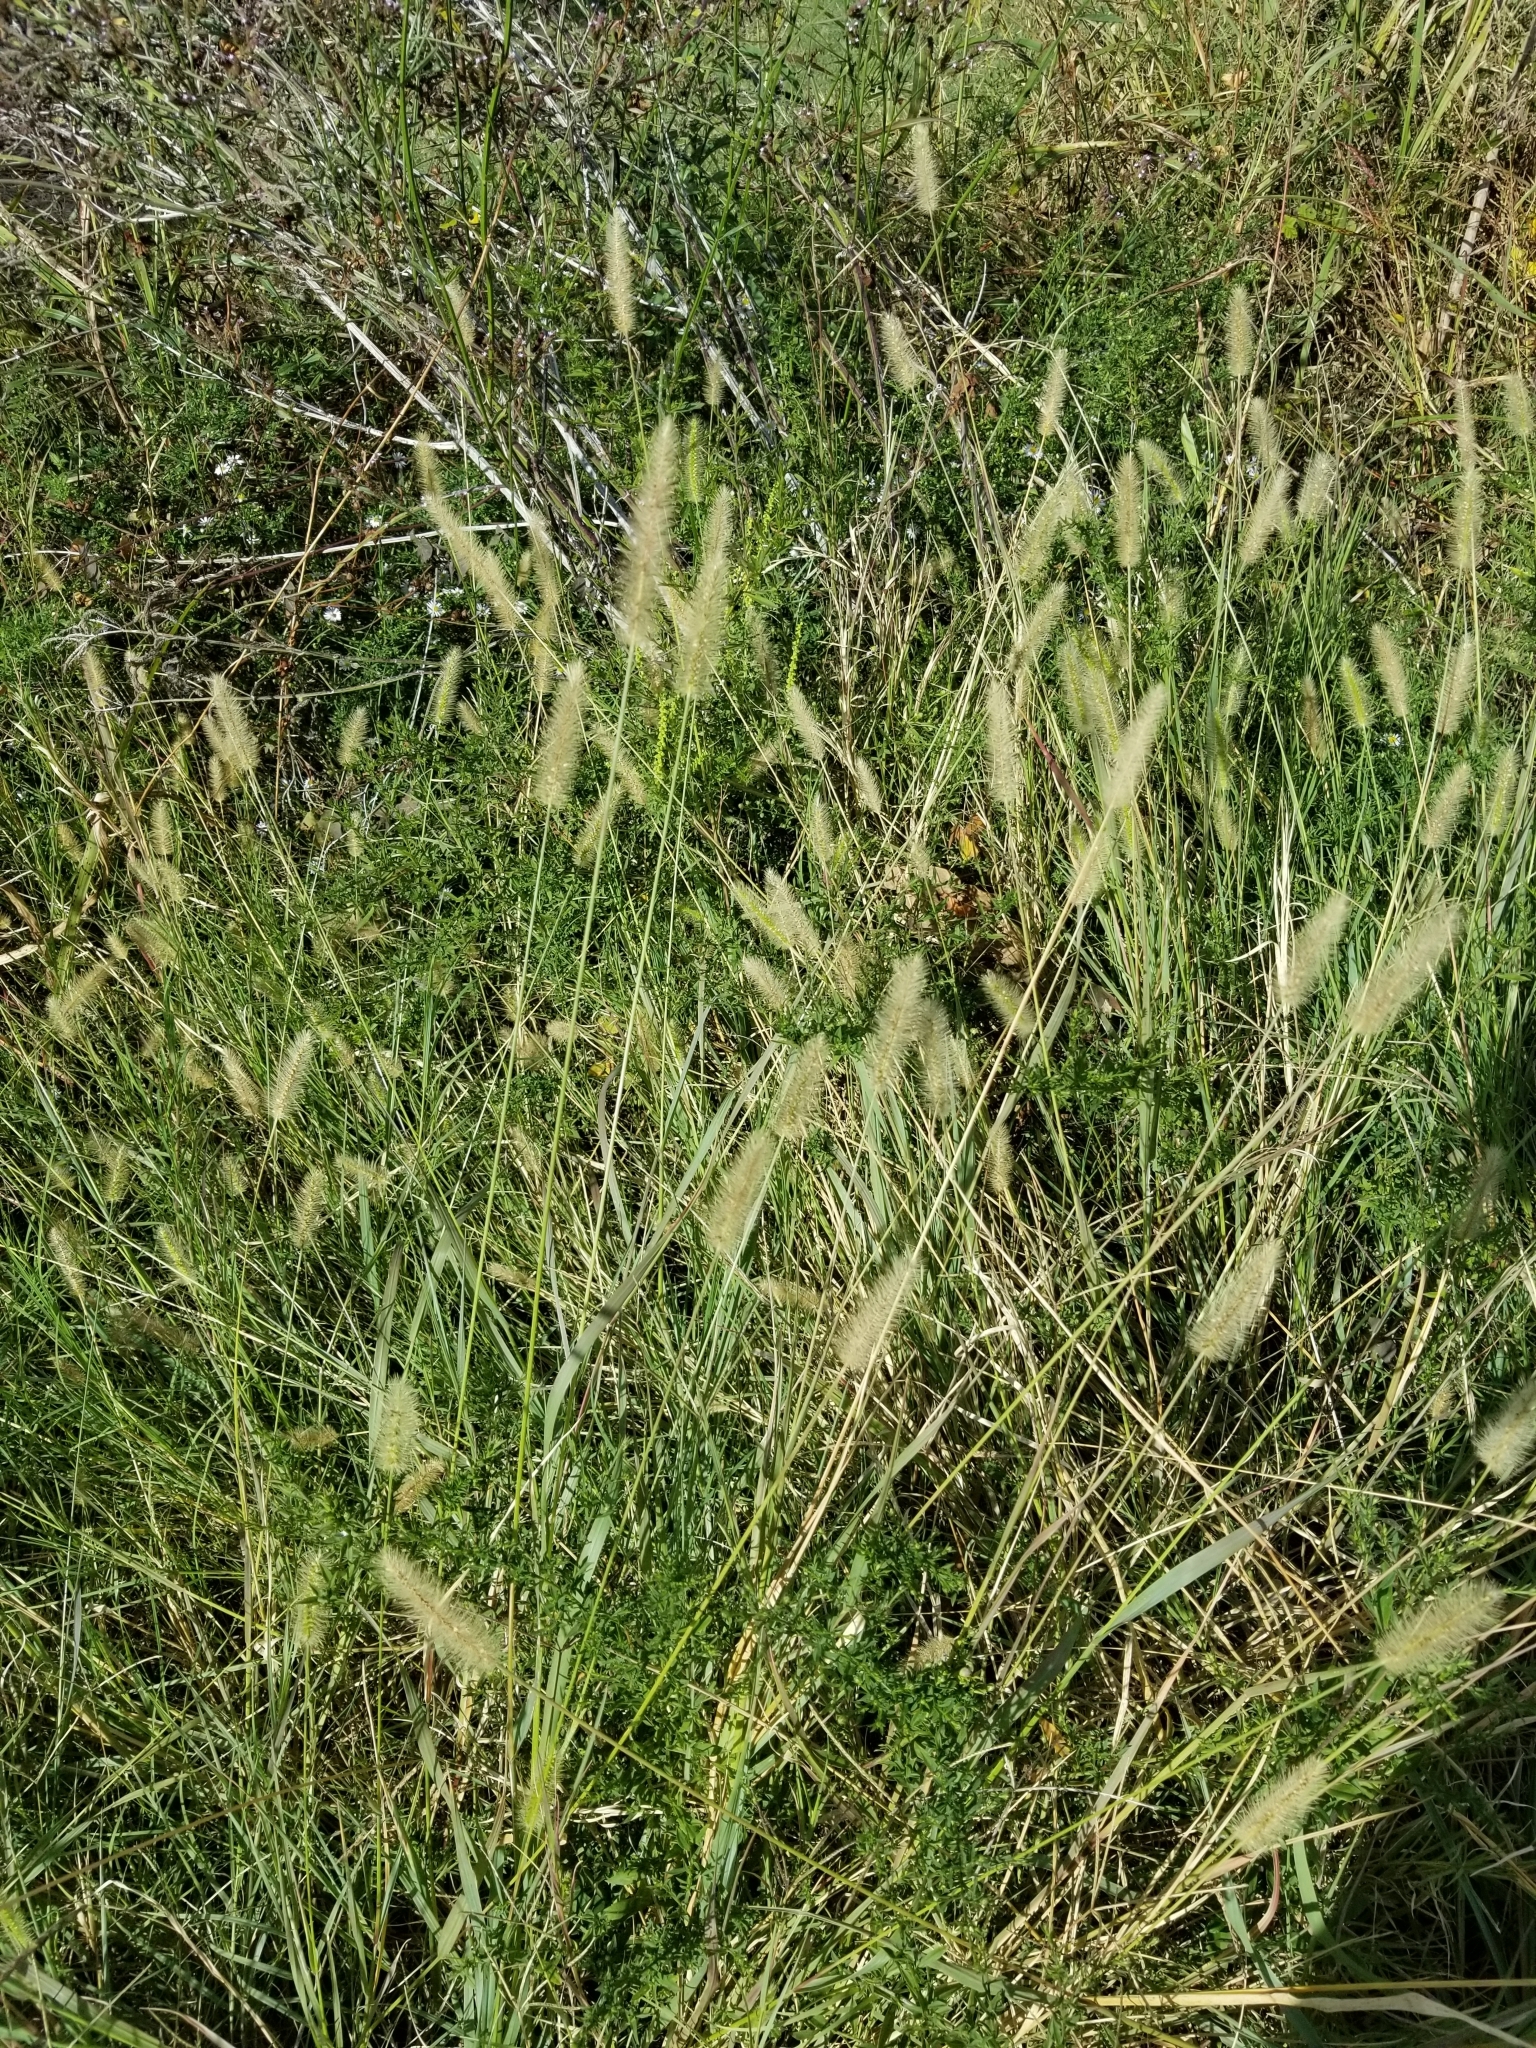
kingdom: Plantae
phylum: Tracheophyta
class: Liliopsida
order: Poales
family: Poaceae
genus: Setaria
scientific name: Setaria parviflora
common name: Knotroot bristle-grass
